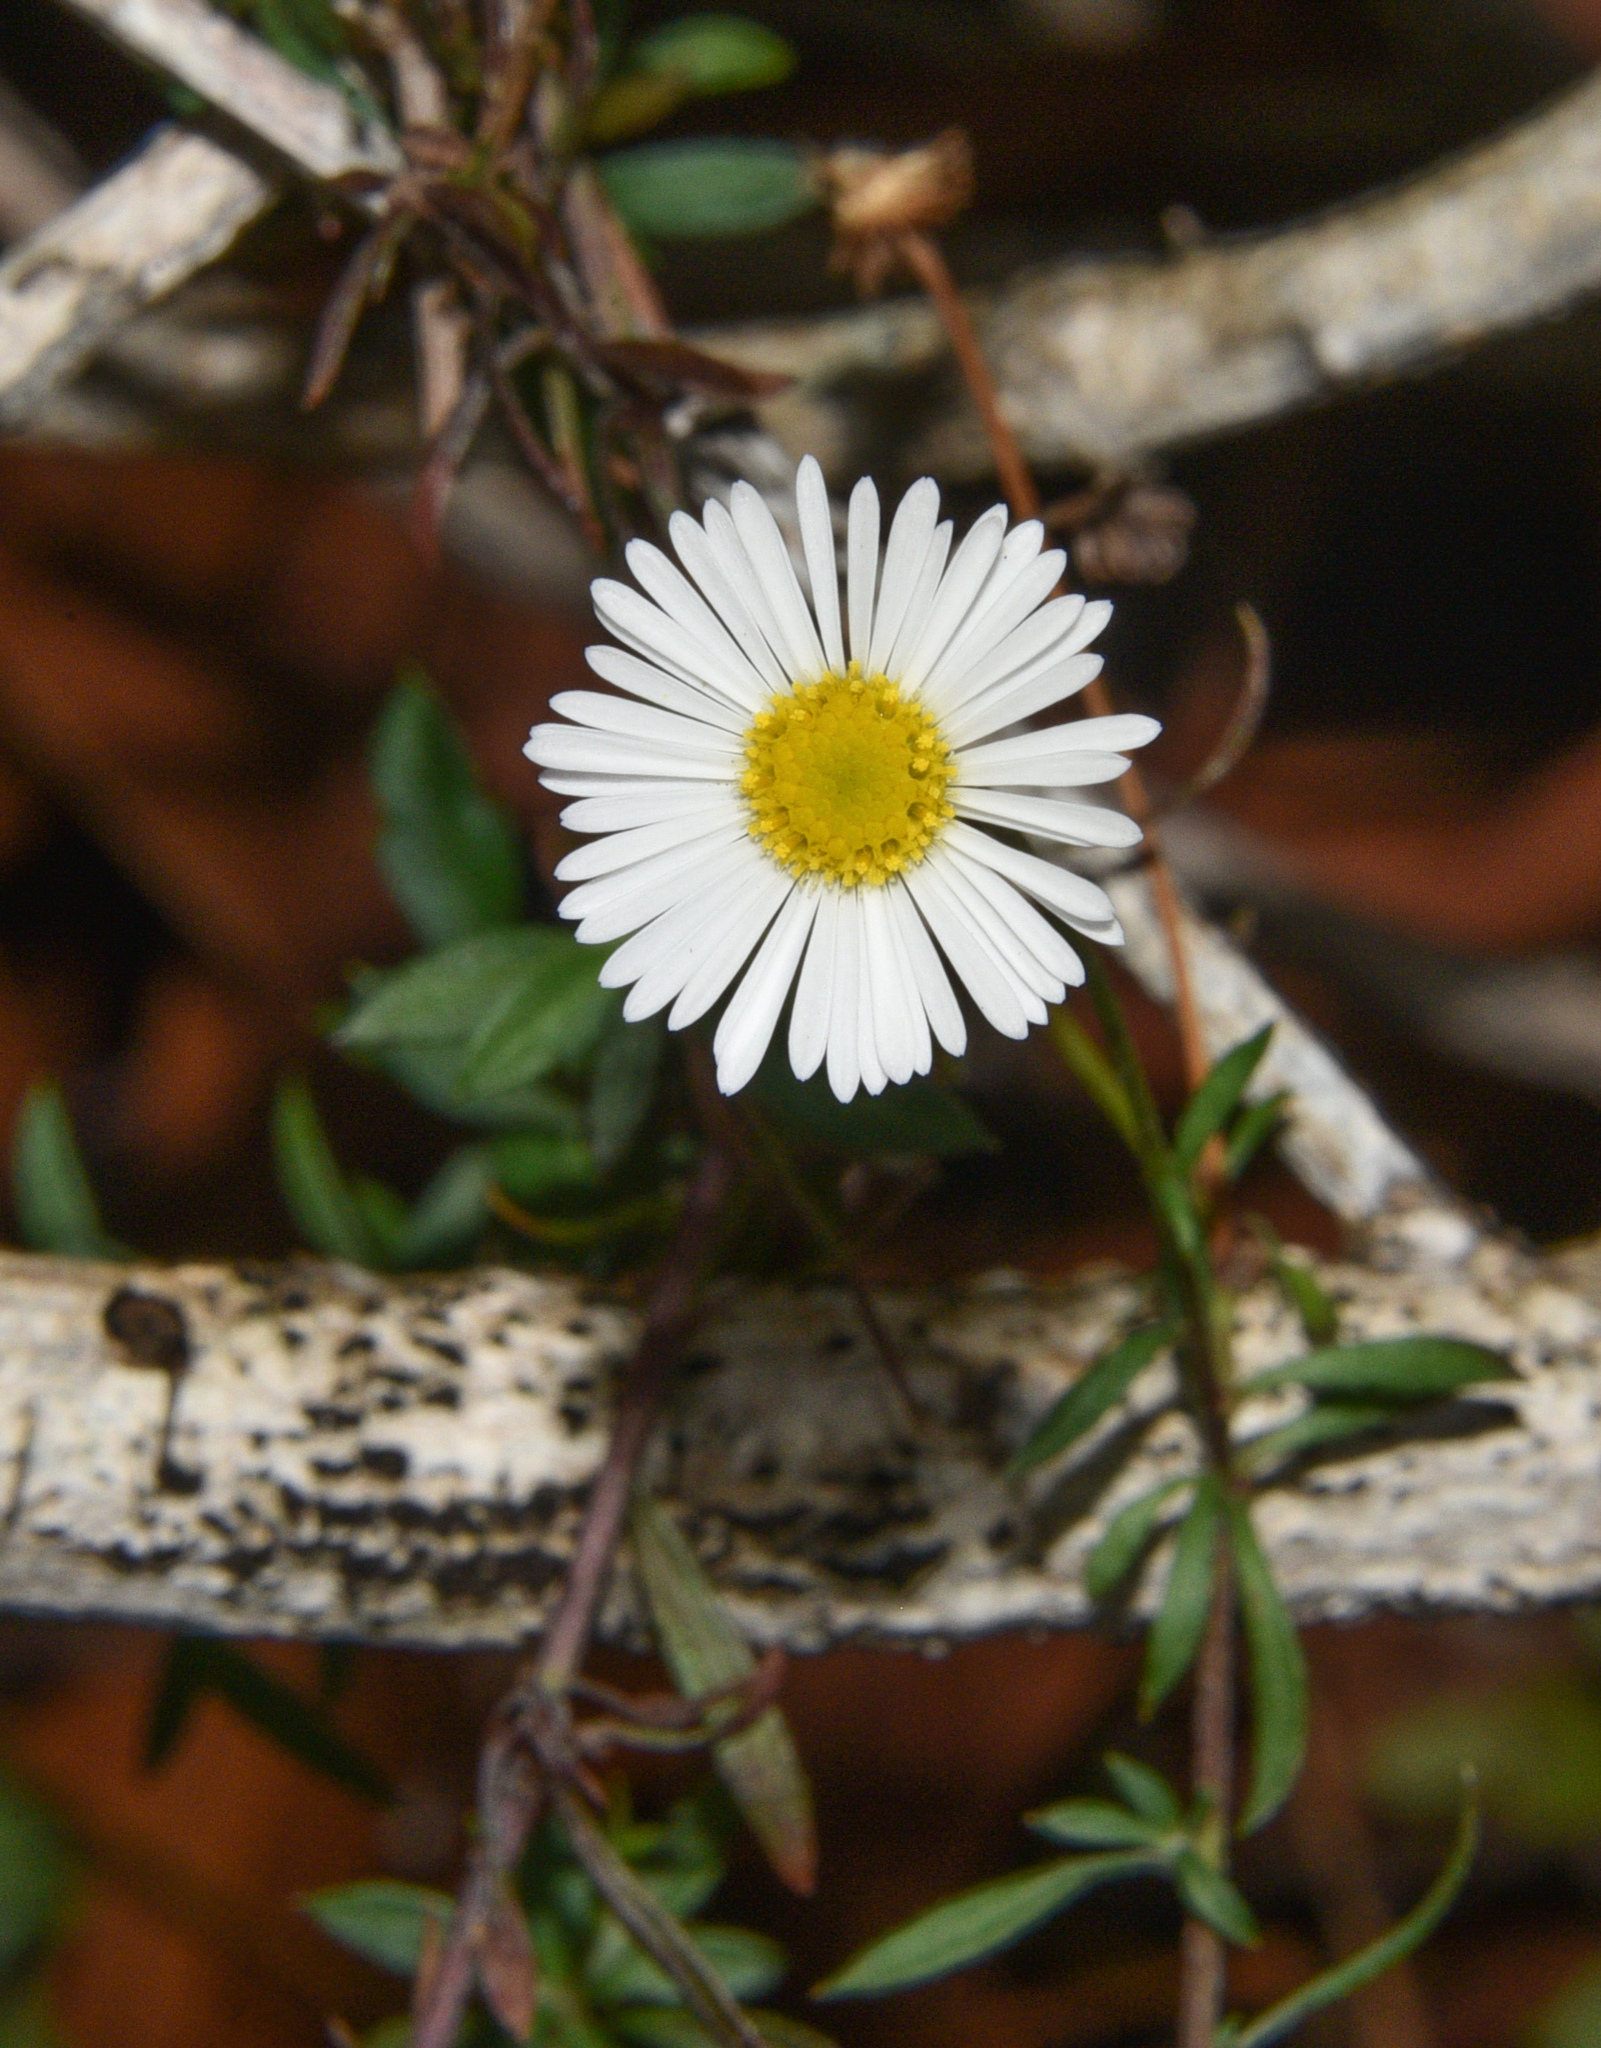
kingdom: Plantae
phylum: Tracheophyta
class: Magnoliopsida
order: Asterales
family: Asteraceae
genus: Erigeron
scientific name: Erigeron karvinskianus
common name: Mexican fleabane
